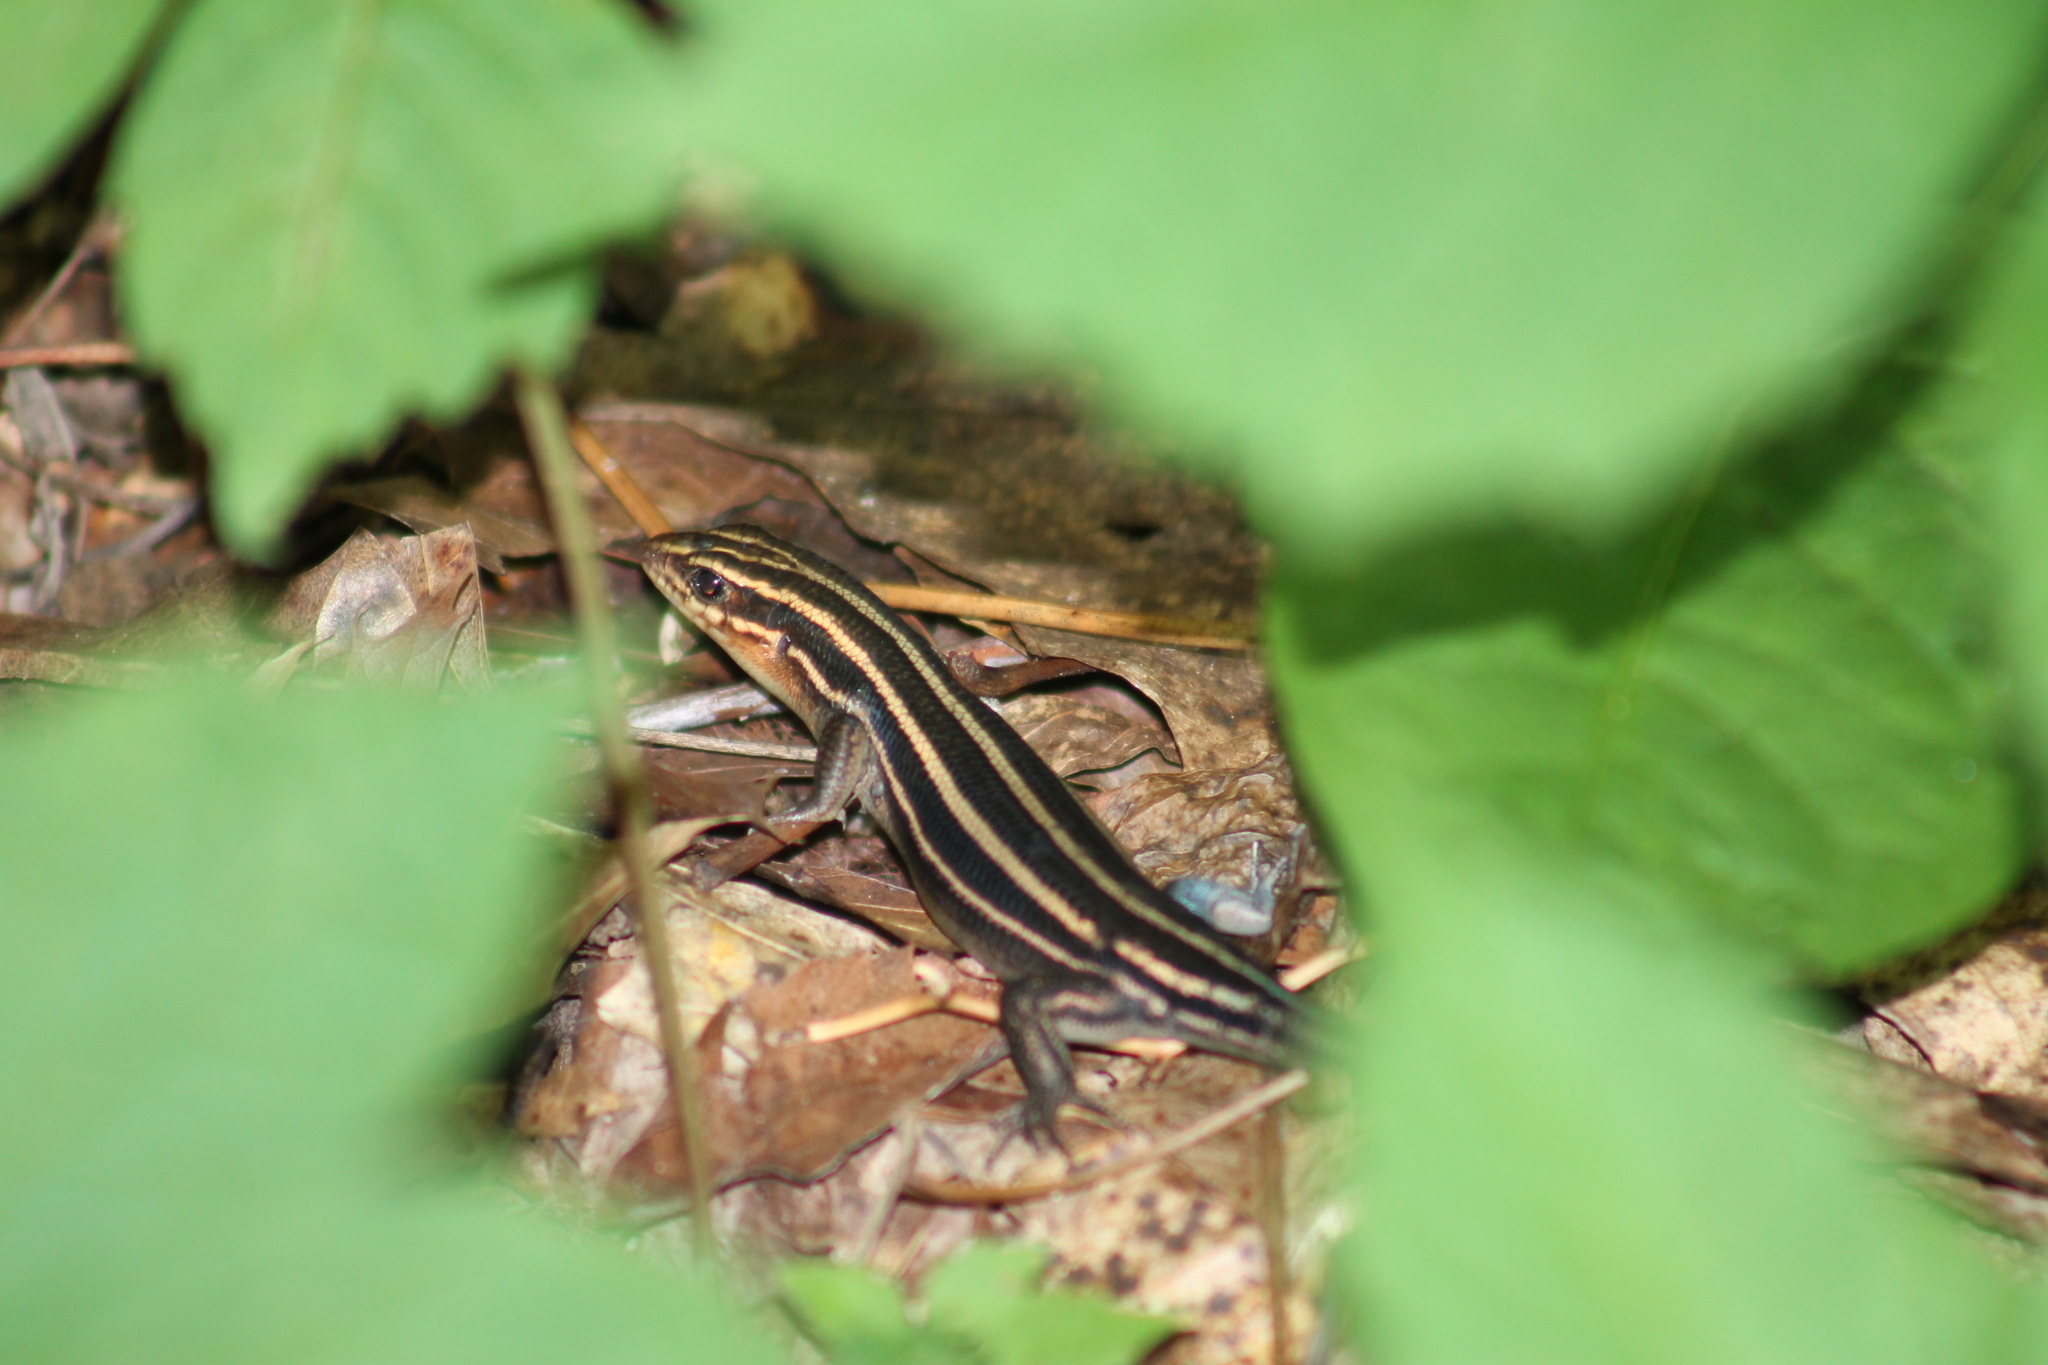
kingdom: Animalia
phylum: Chordata
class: Squamata
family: Scincidae
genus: Plestiodon
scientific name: Plestiodon fasciatus
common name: Five-lined skink
